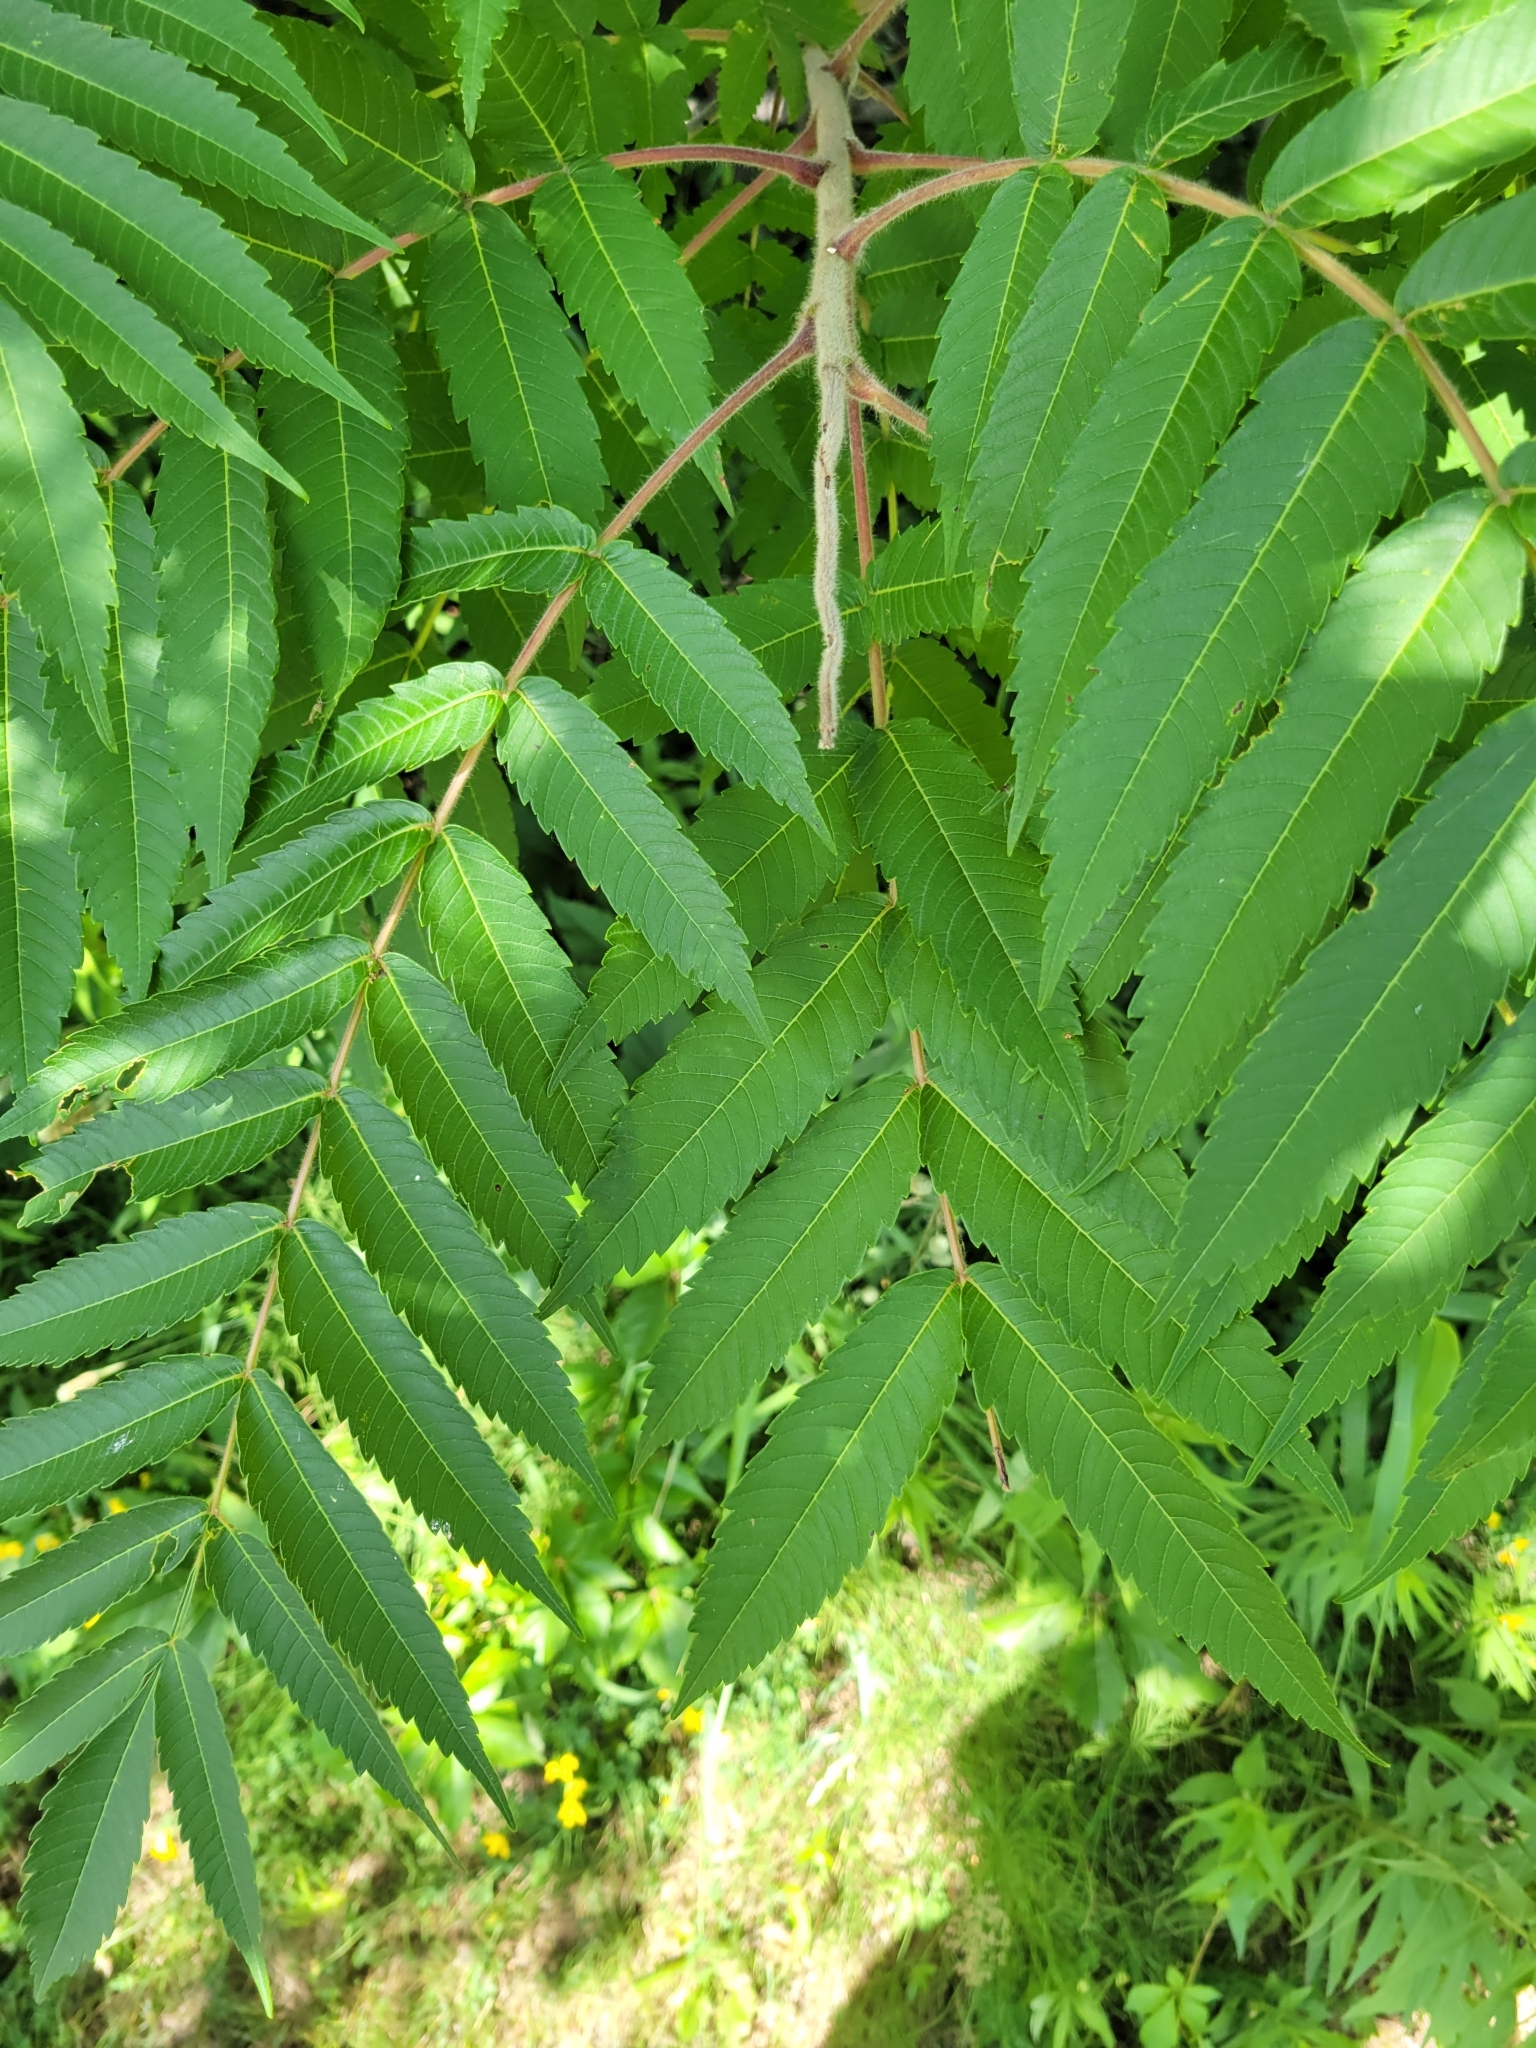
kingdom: Plantae
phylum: Tracheophyta
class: Magnoliopsida
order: Sapindales
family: Anacardiaceae
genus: Rhus
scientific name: Rhus typhina
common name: Staghorn sumac
